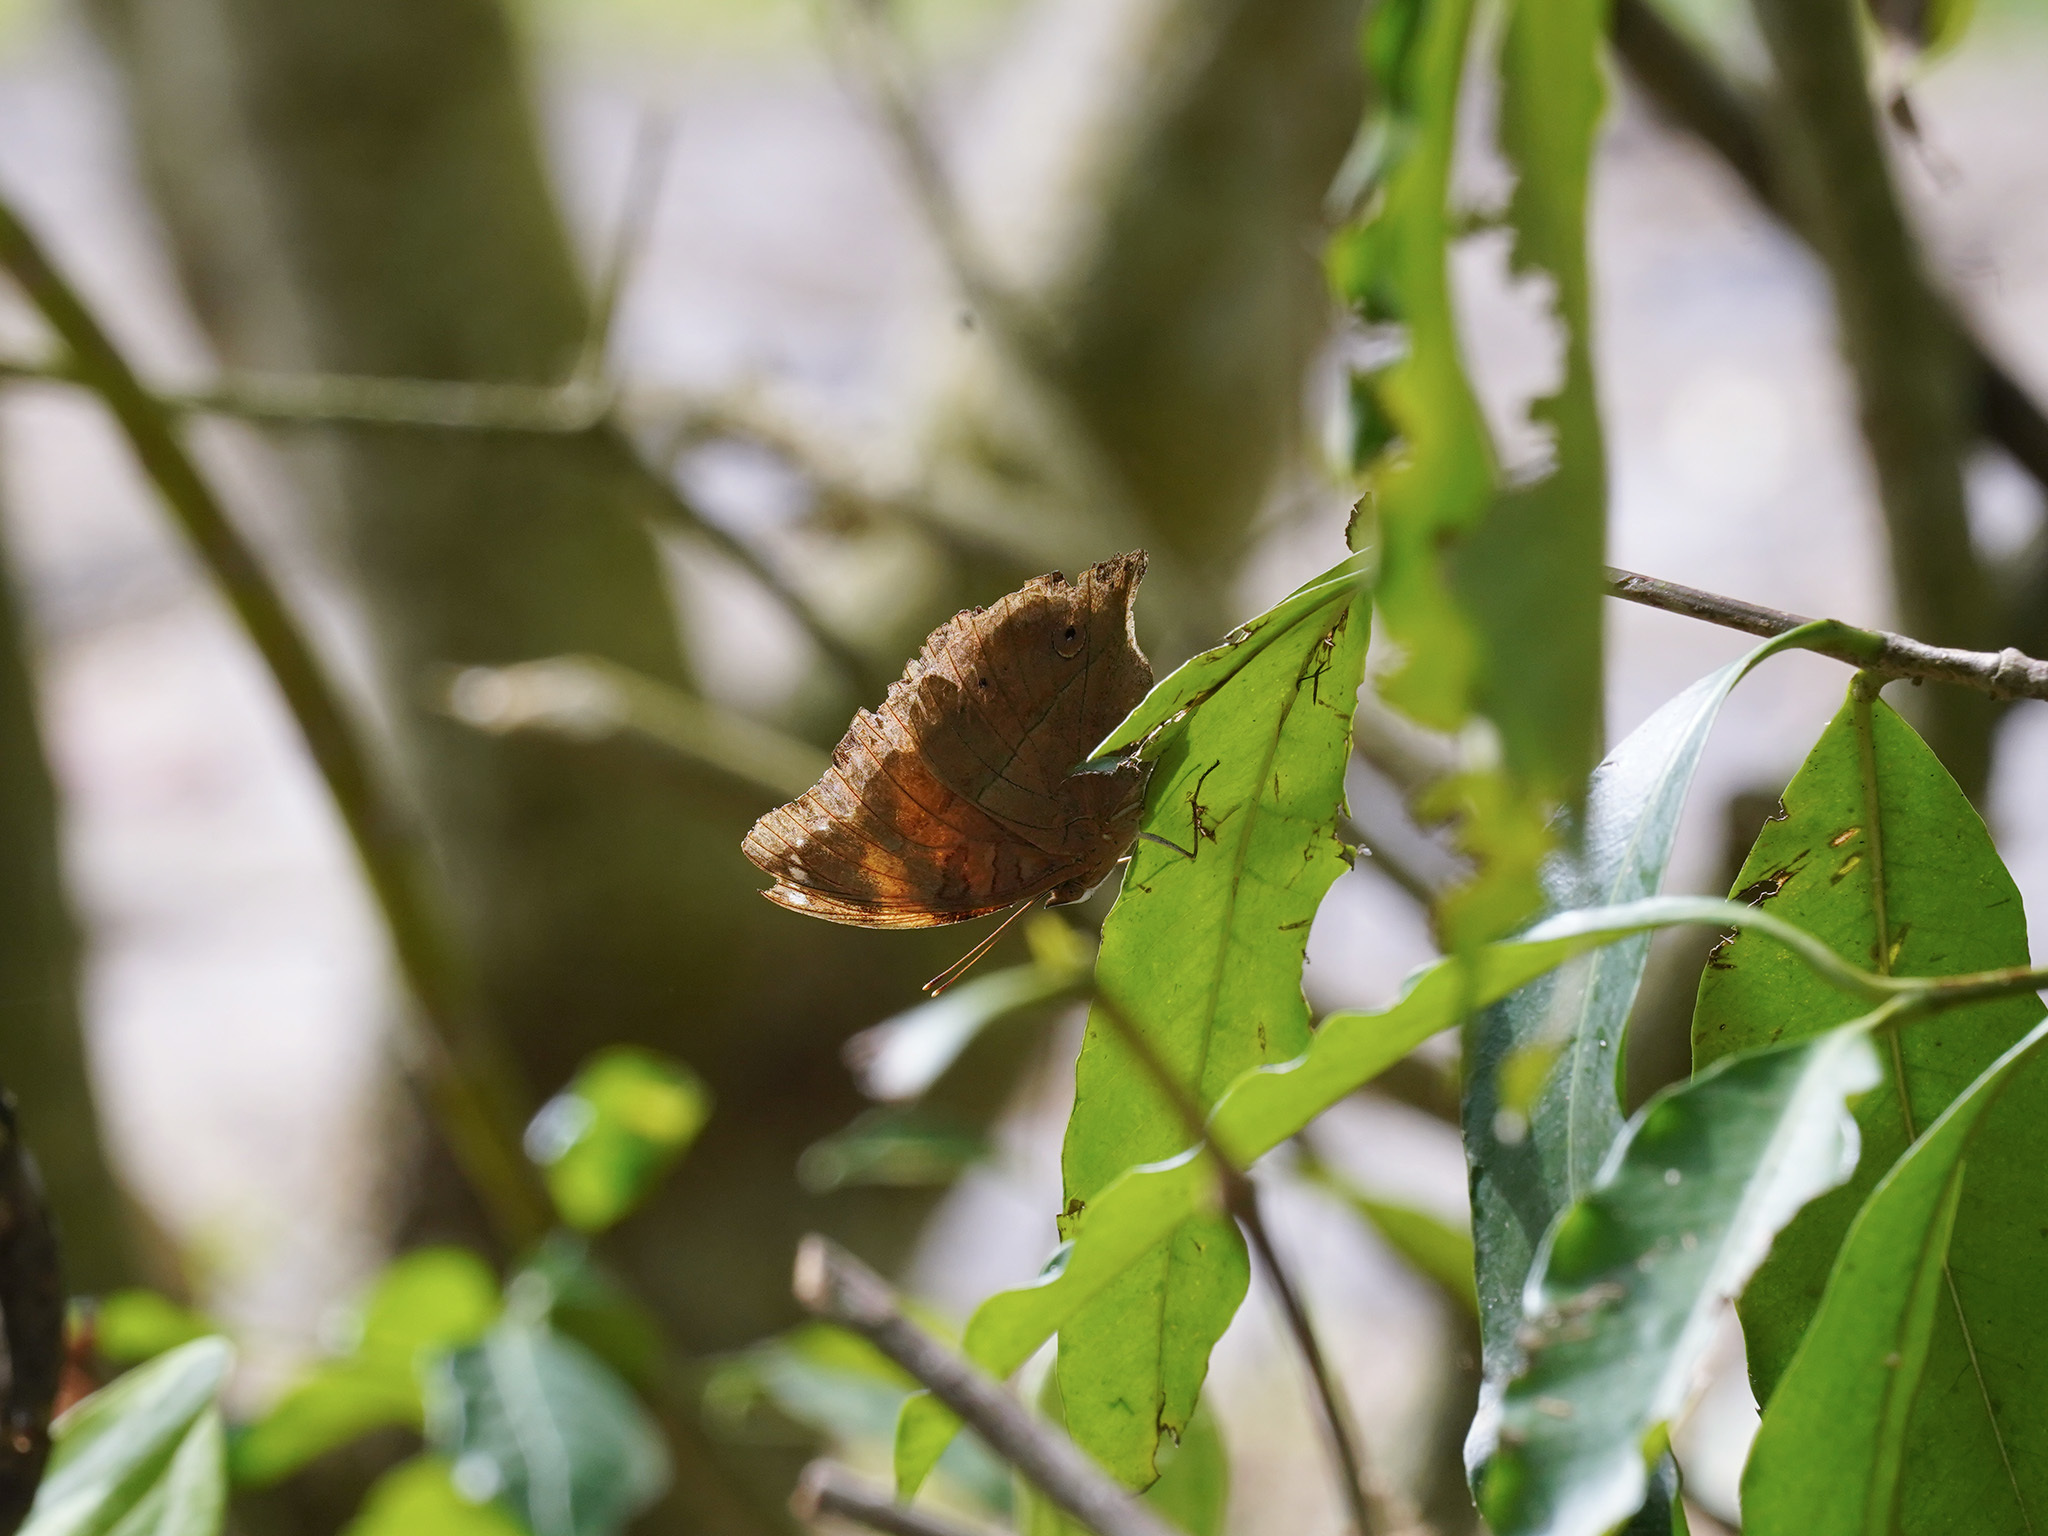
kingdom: Animalia
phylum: Arthropoda
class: Insecta
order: Lepidoptera
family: Nymphalidae
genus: Doleschallia
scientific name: Doleschallia bisaltide
